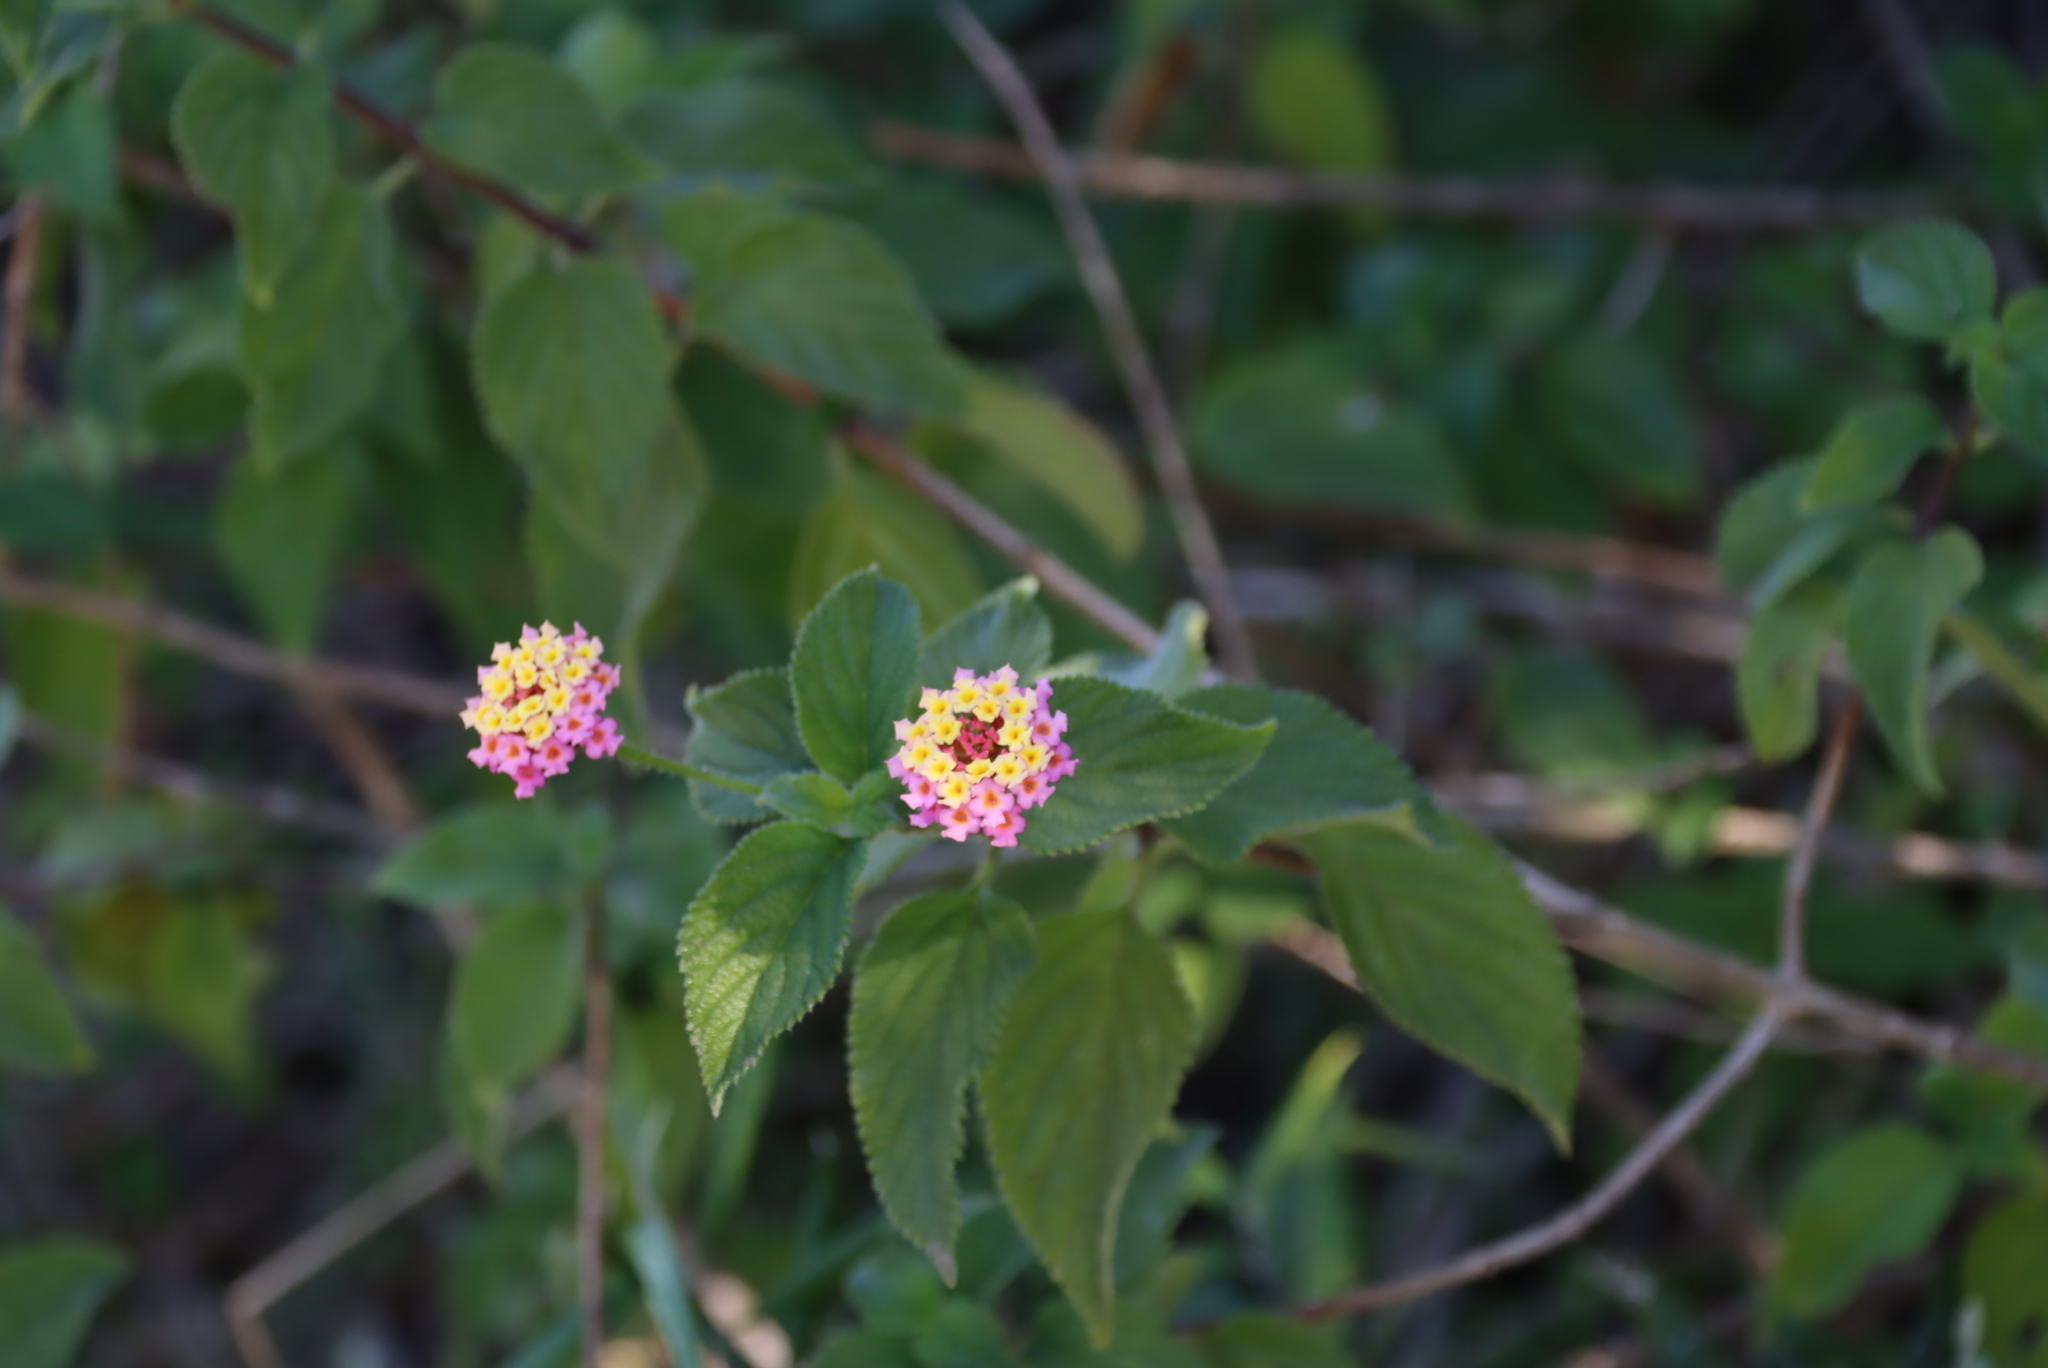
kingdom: Plantae
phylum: Tracheophyta
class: Magnoliopsida
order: Lamiales
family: Verbenaceae
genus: Lantana
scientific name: Lantana camara
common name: Lantana
